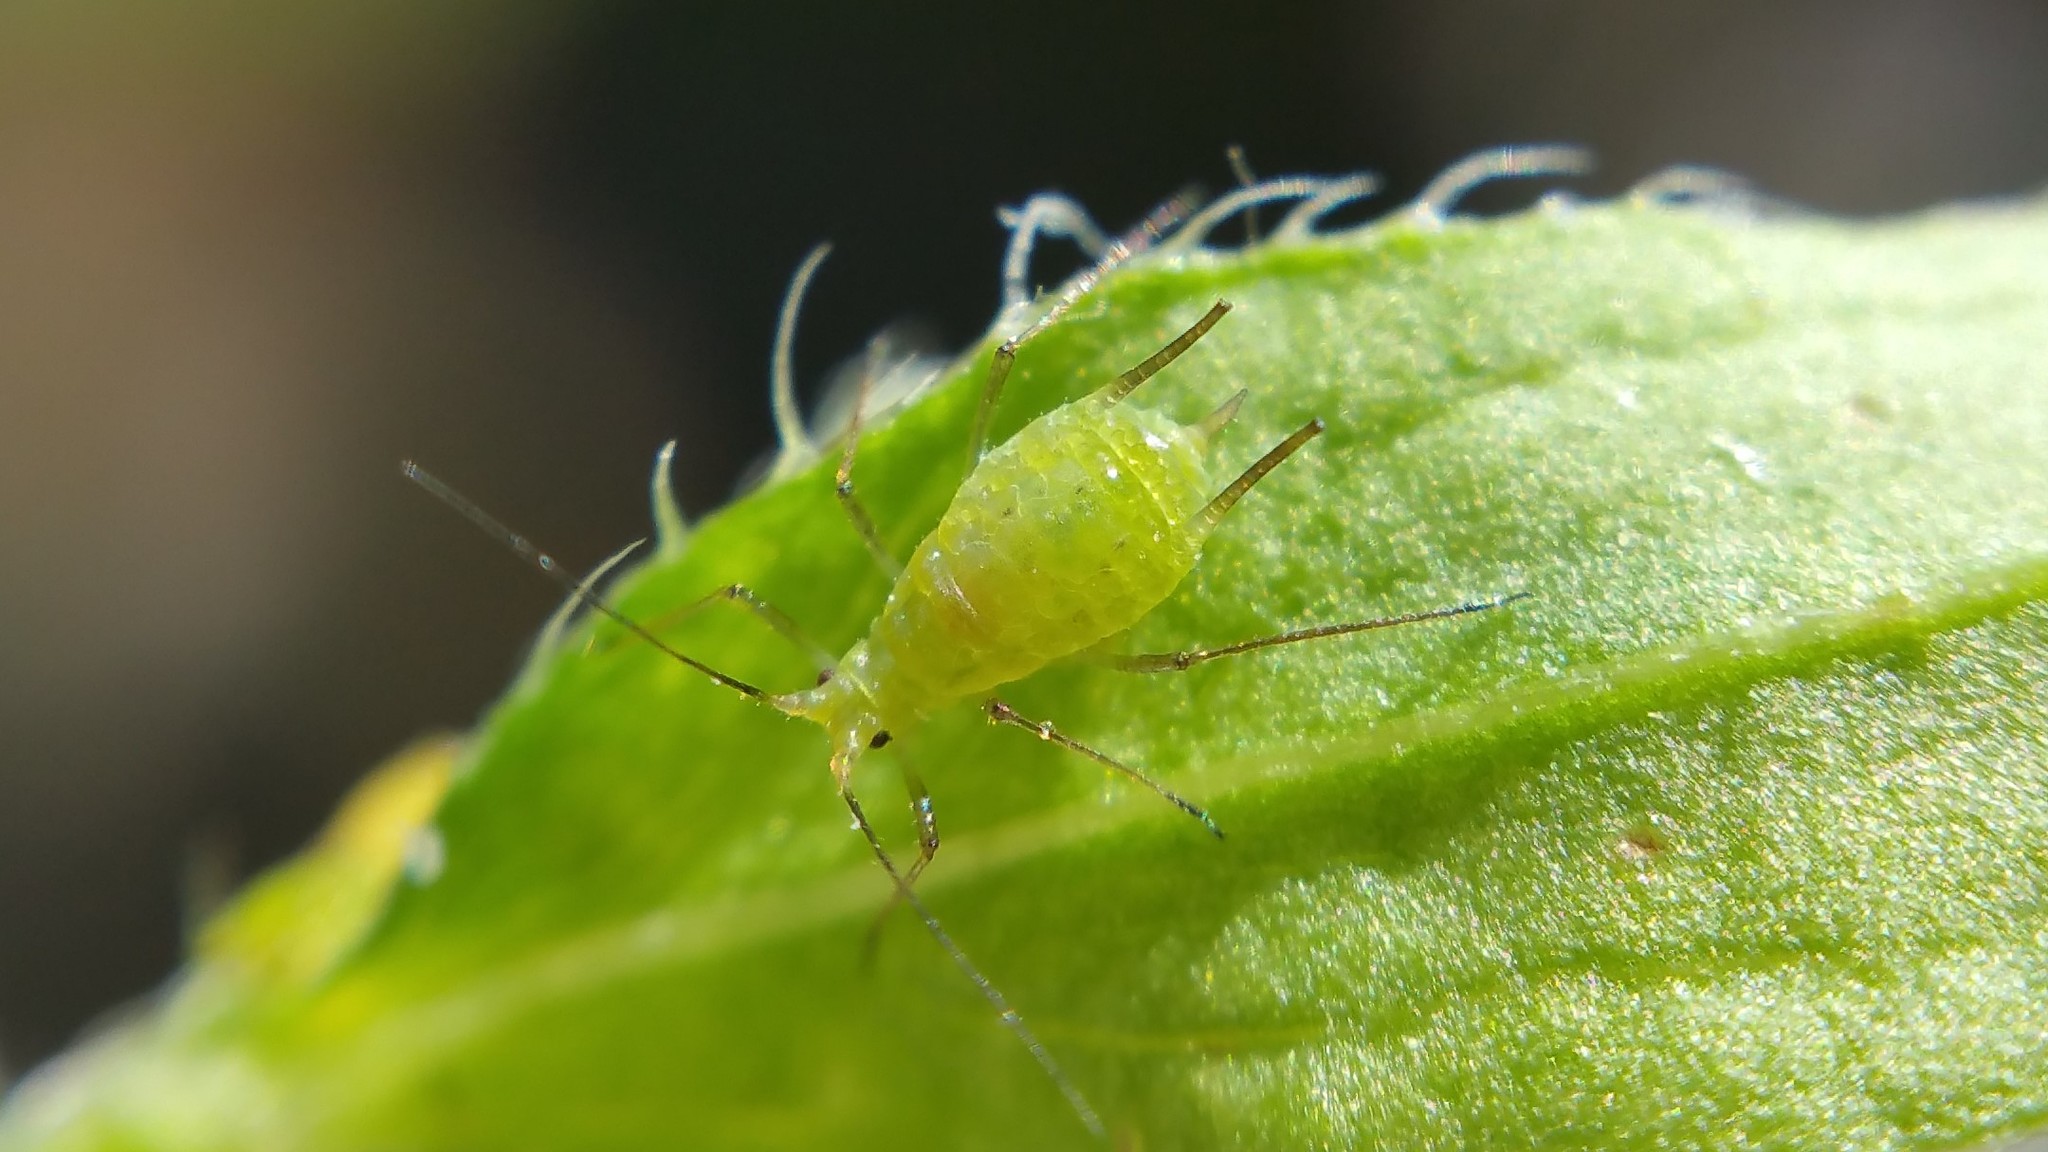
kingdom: Animalia
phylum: Arthropoda
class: Insecta
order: Hemiptera
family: Aphididae
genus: Uroleucon
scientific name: Uroleucon erigeronense
